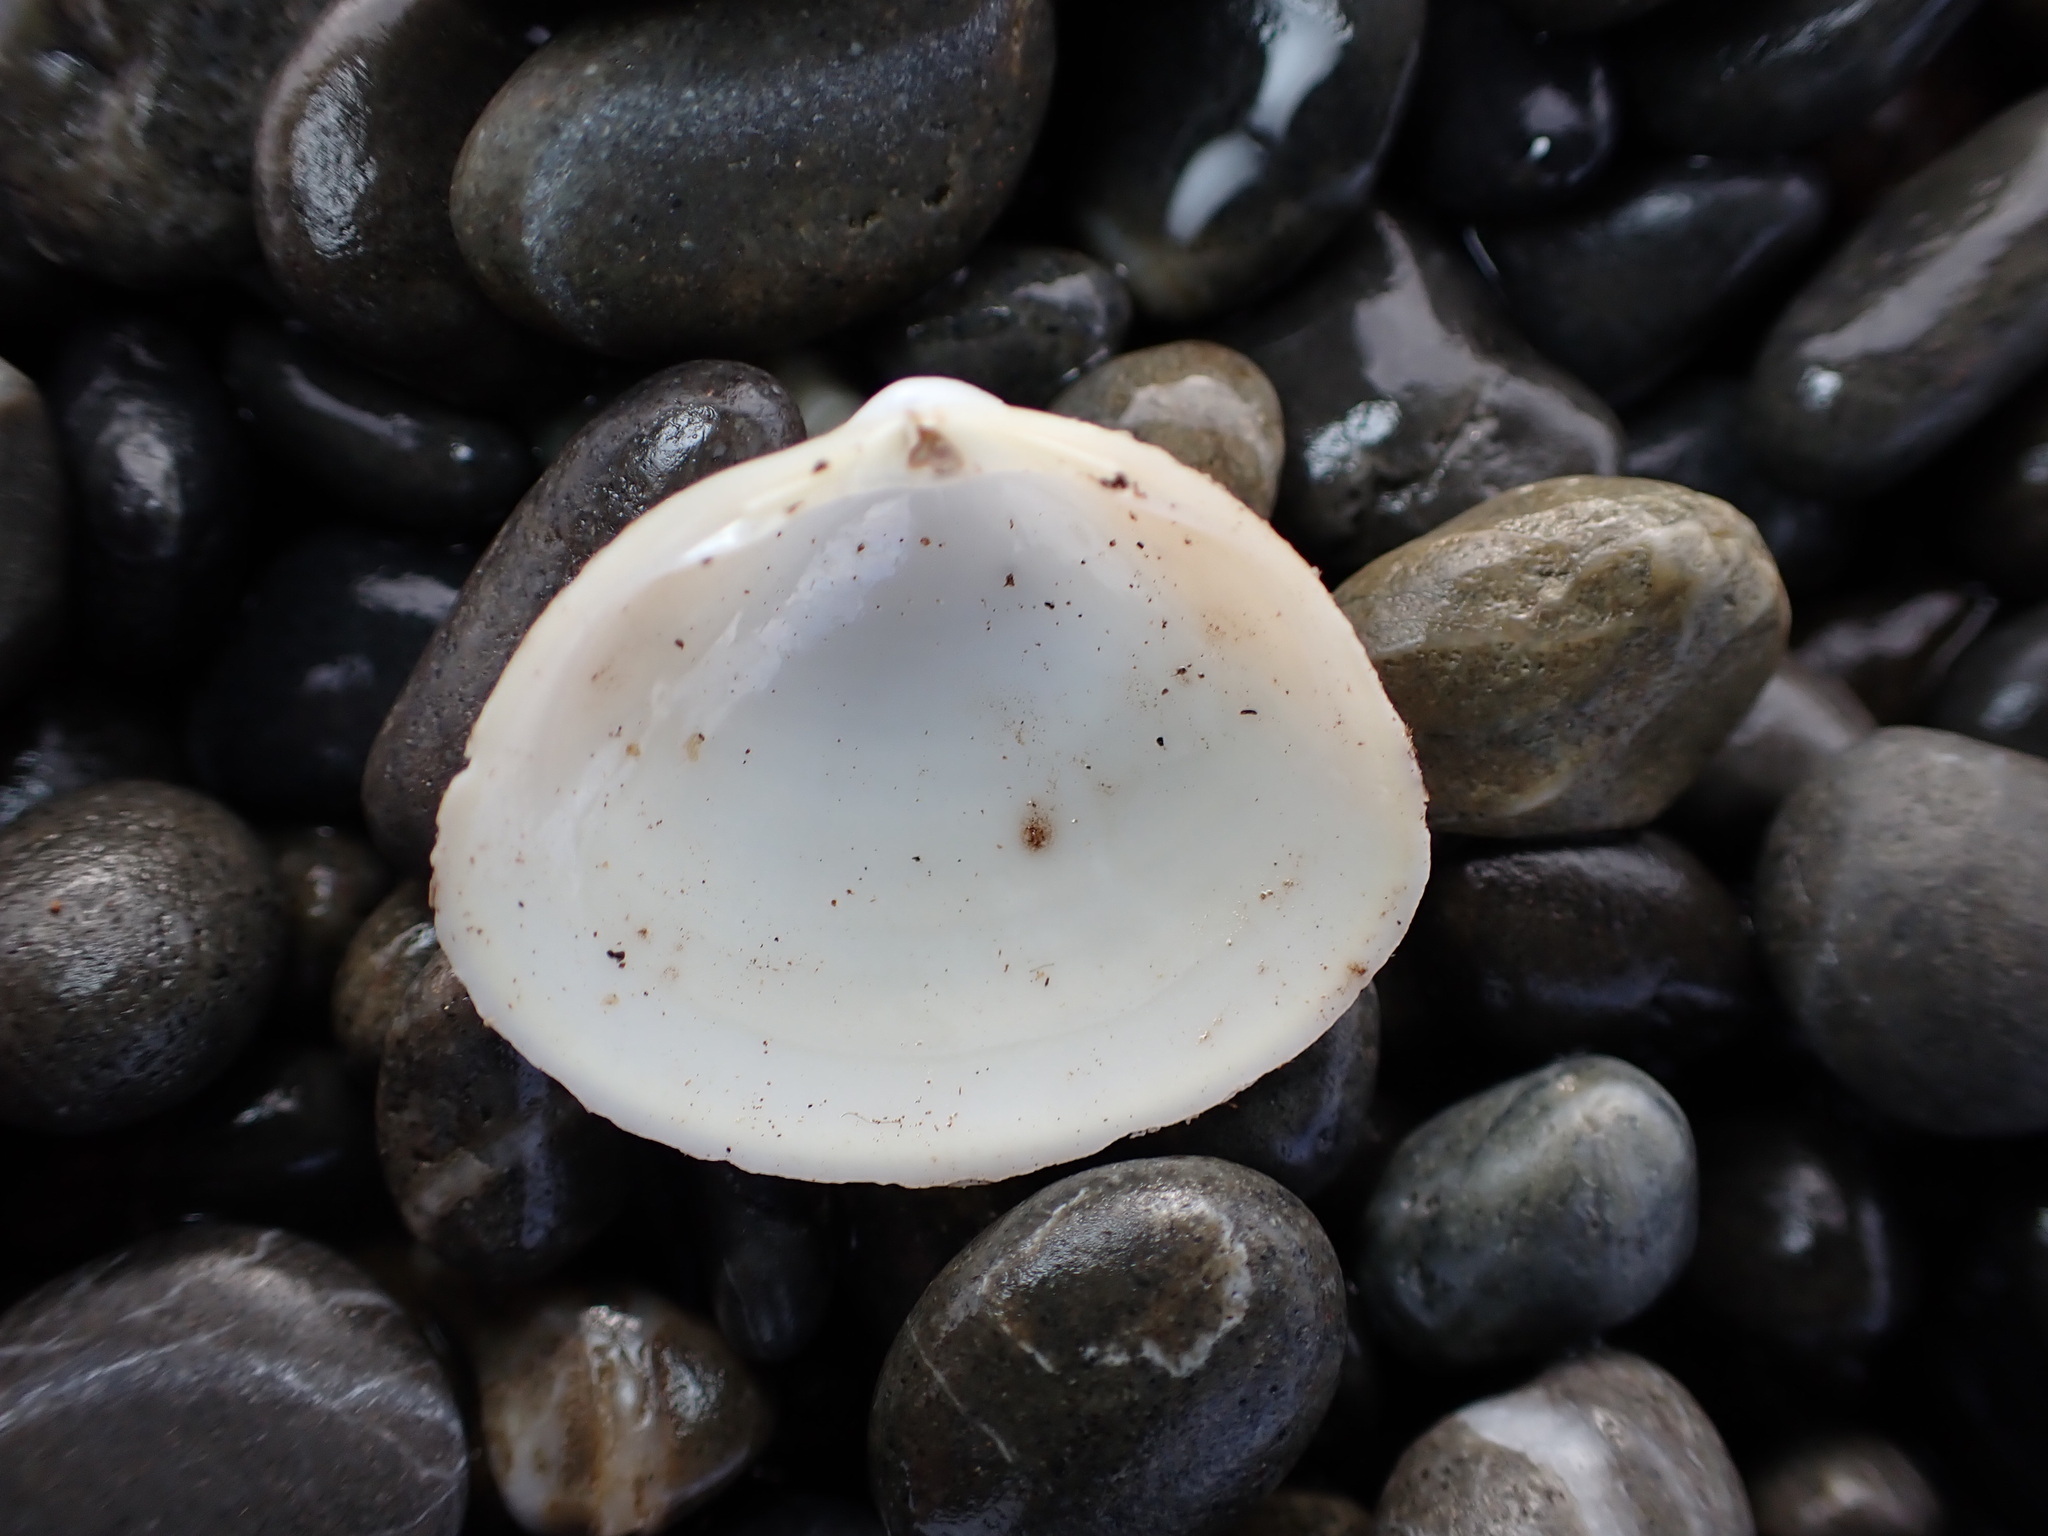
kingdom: Animalia
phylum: Mollusca
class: Bivalvia
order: Venerida
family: Mactridae
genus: Spisula
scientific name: Spisula discors
